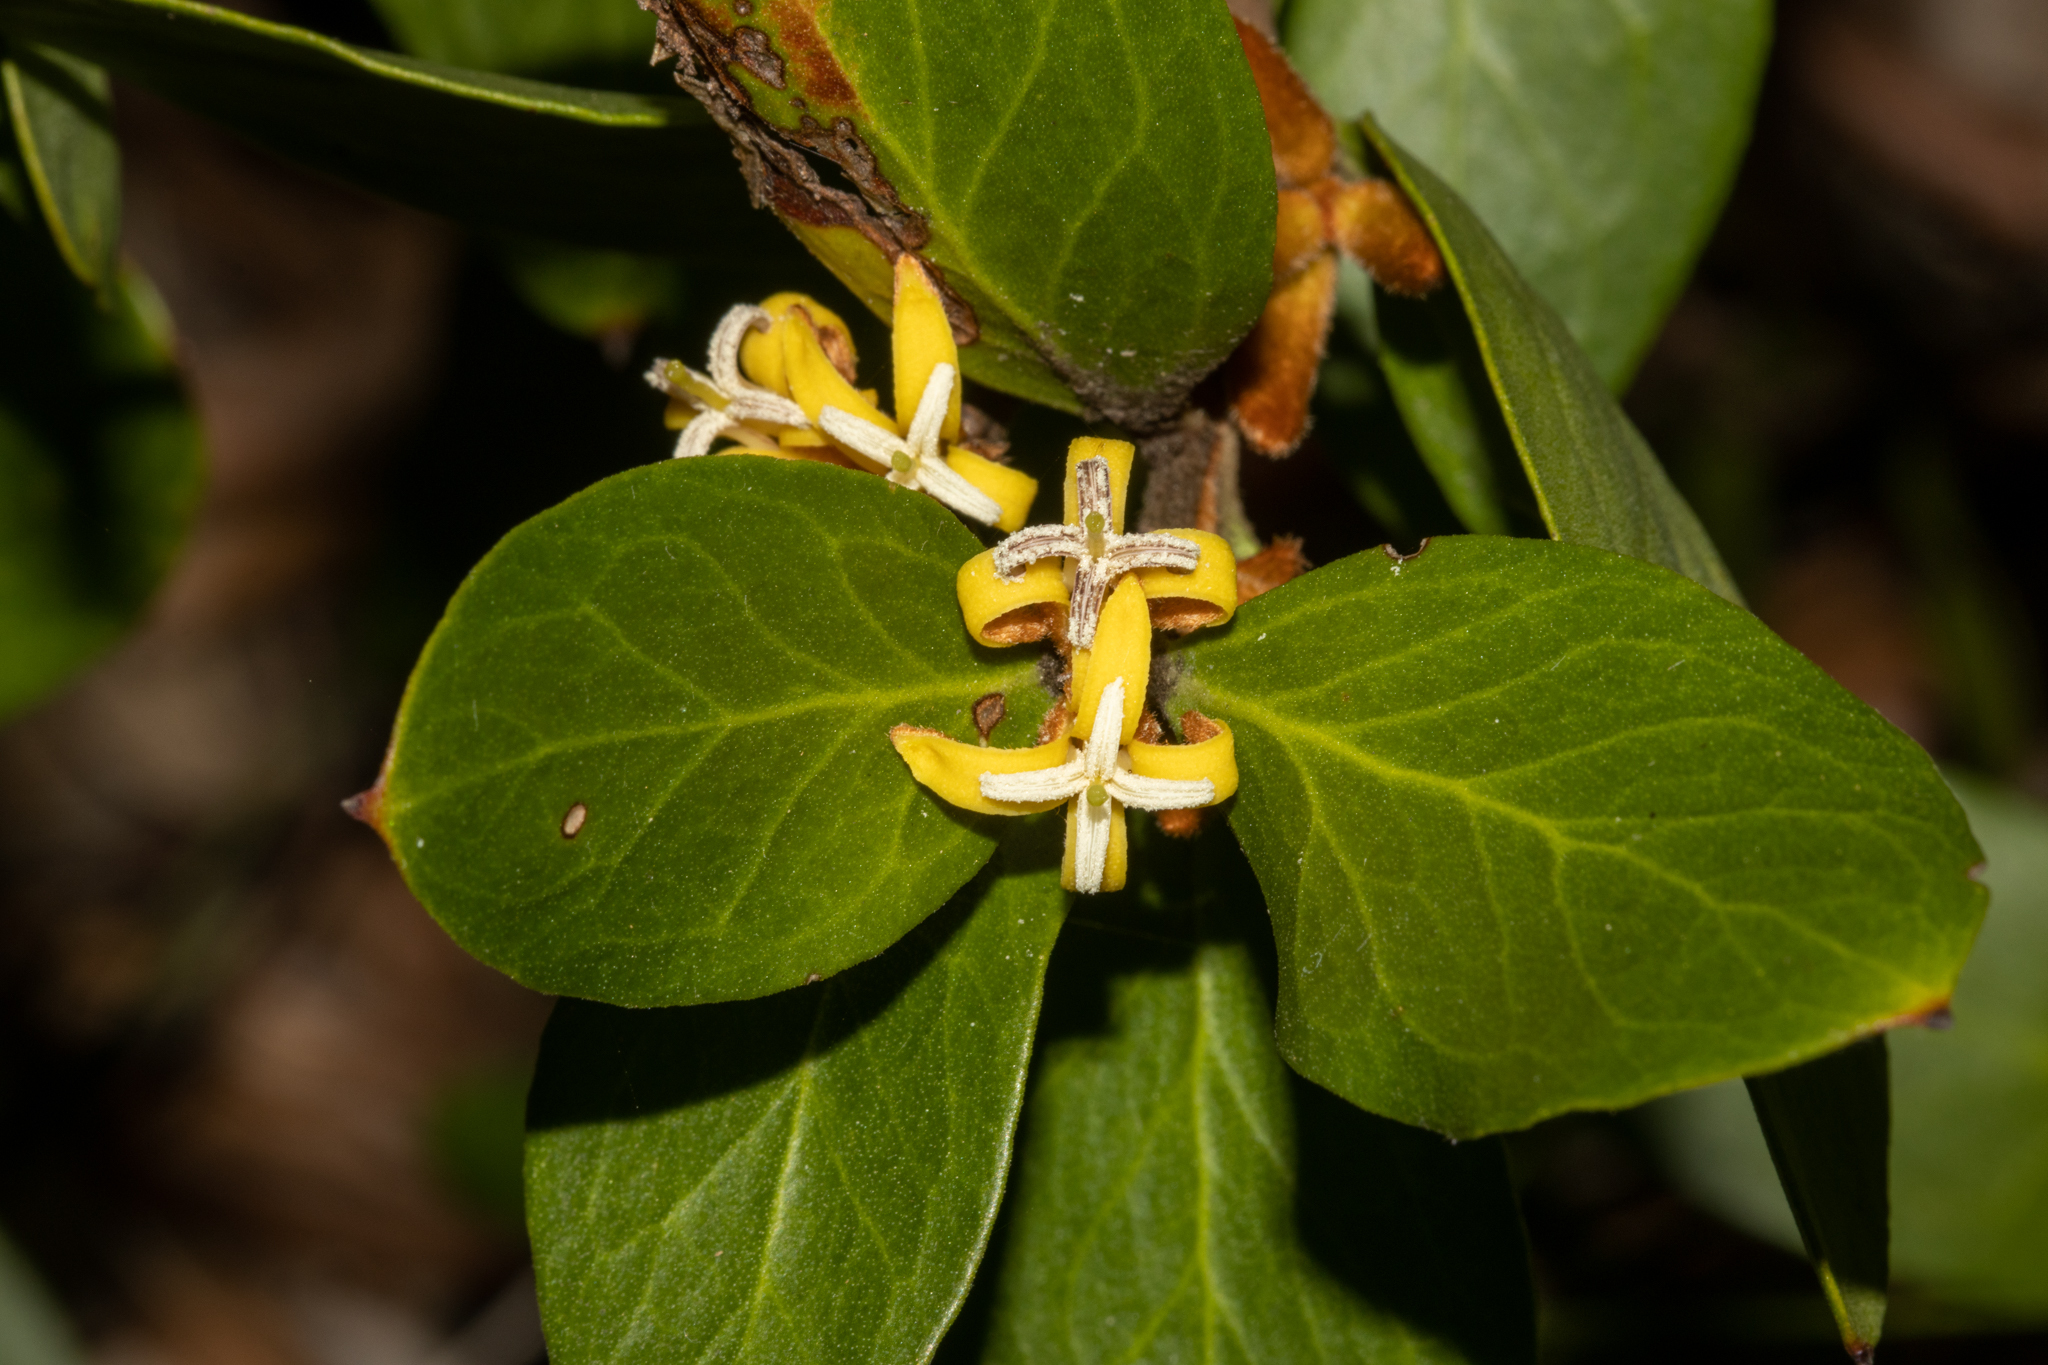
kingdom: Plantae
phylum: Tracheophyta
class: Magnoliopsida
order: Proteales
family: Proteaceae
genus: Persoonia
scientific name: Persoonia laurina
